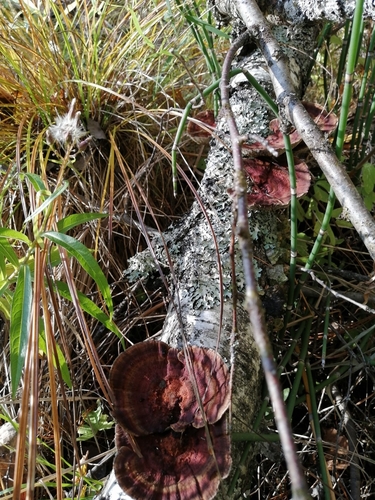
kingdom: Fungi
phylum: Basidiomycota
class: Agaricomycetes
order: Polyporales
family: Polyporaceae
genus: Daedaleopsis
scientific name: Daedaleopsis tricolor
